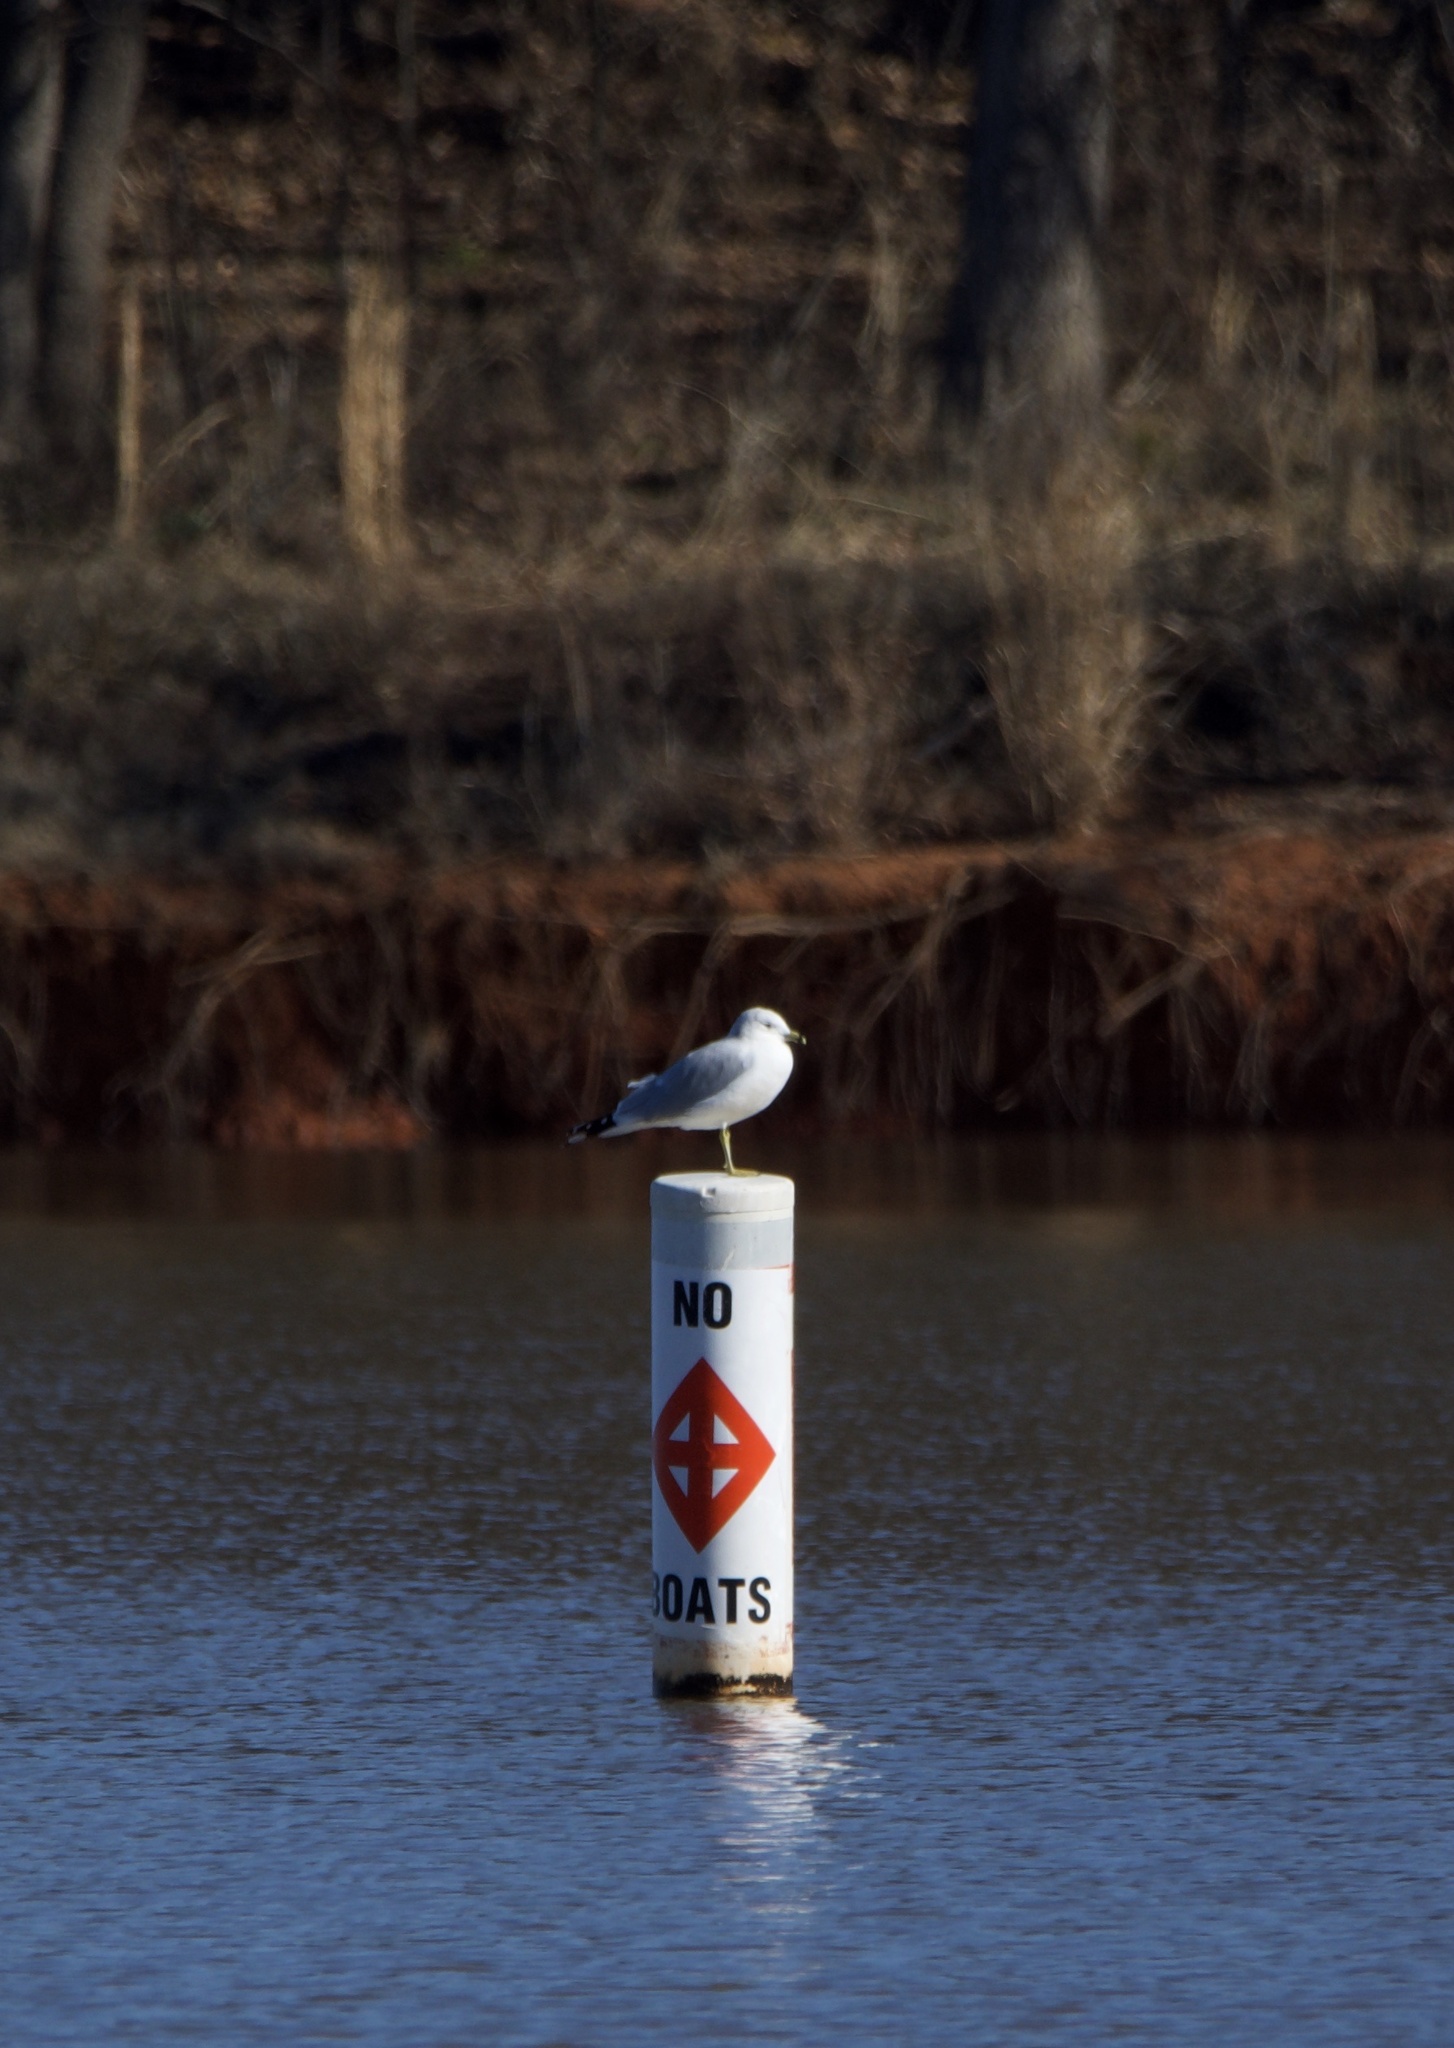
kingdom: Animalia
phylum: Chordata
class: Aves
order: Charadriiformes
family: Laridae
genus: Larus
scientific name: Larus delawarensis
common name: Ring-billed gull
